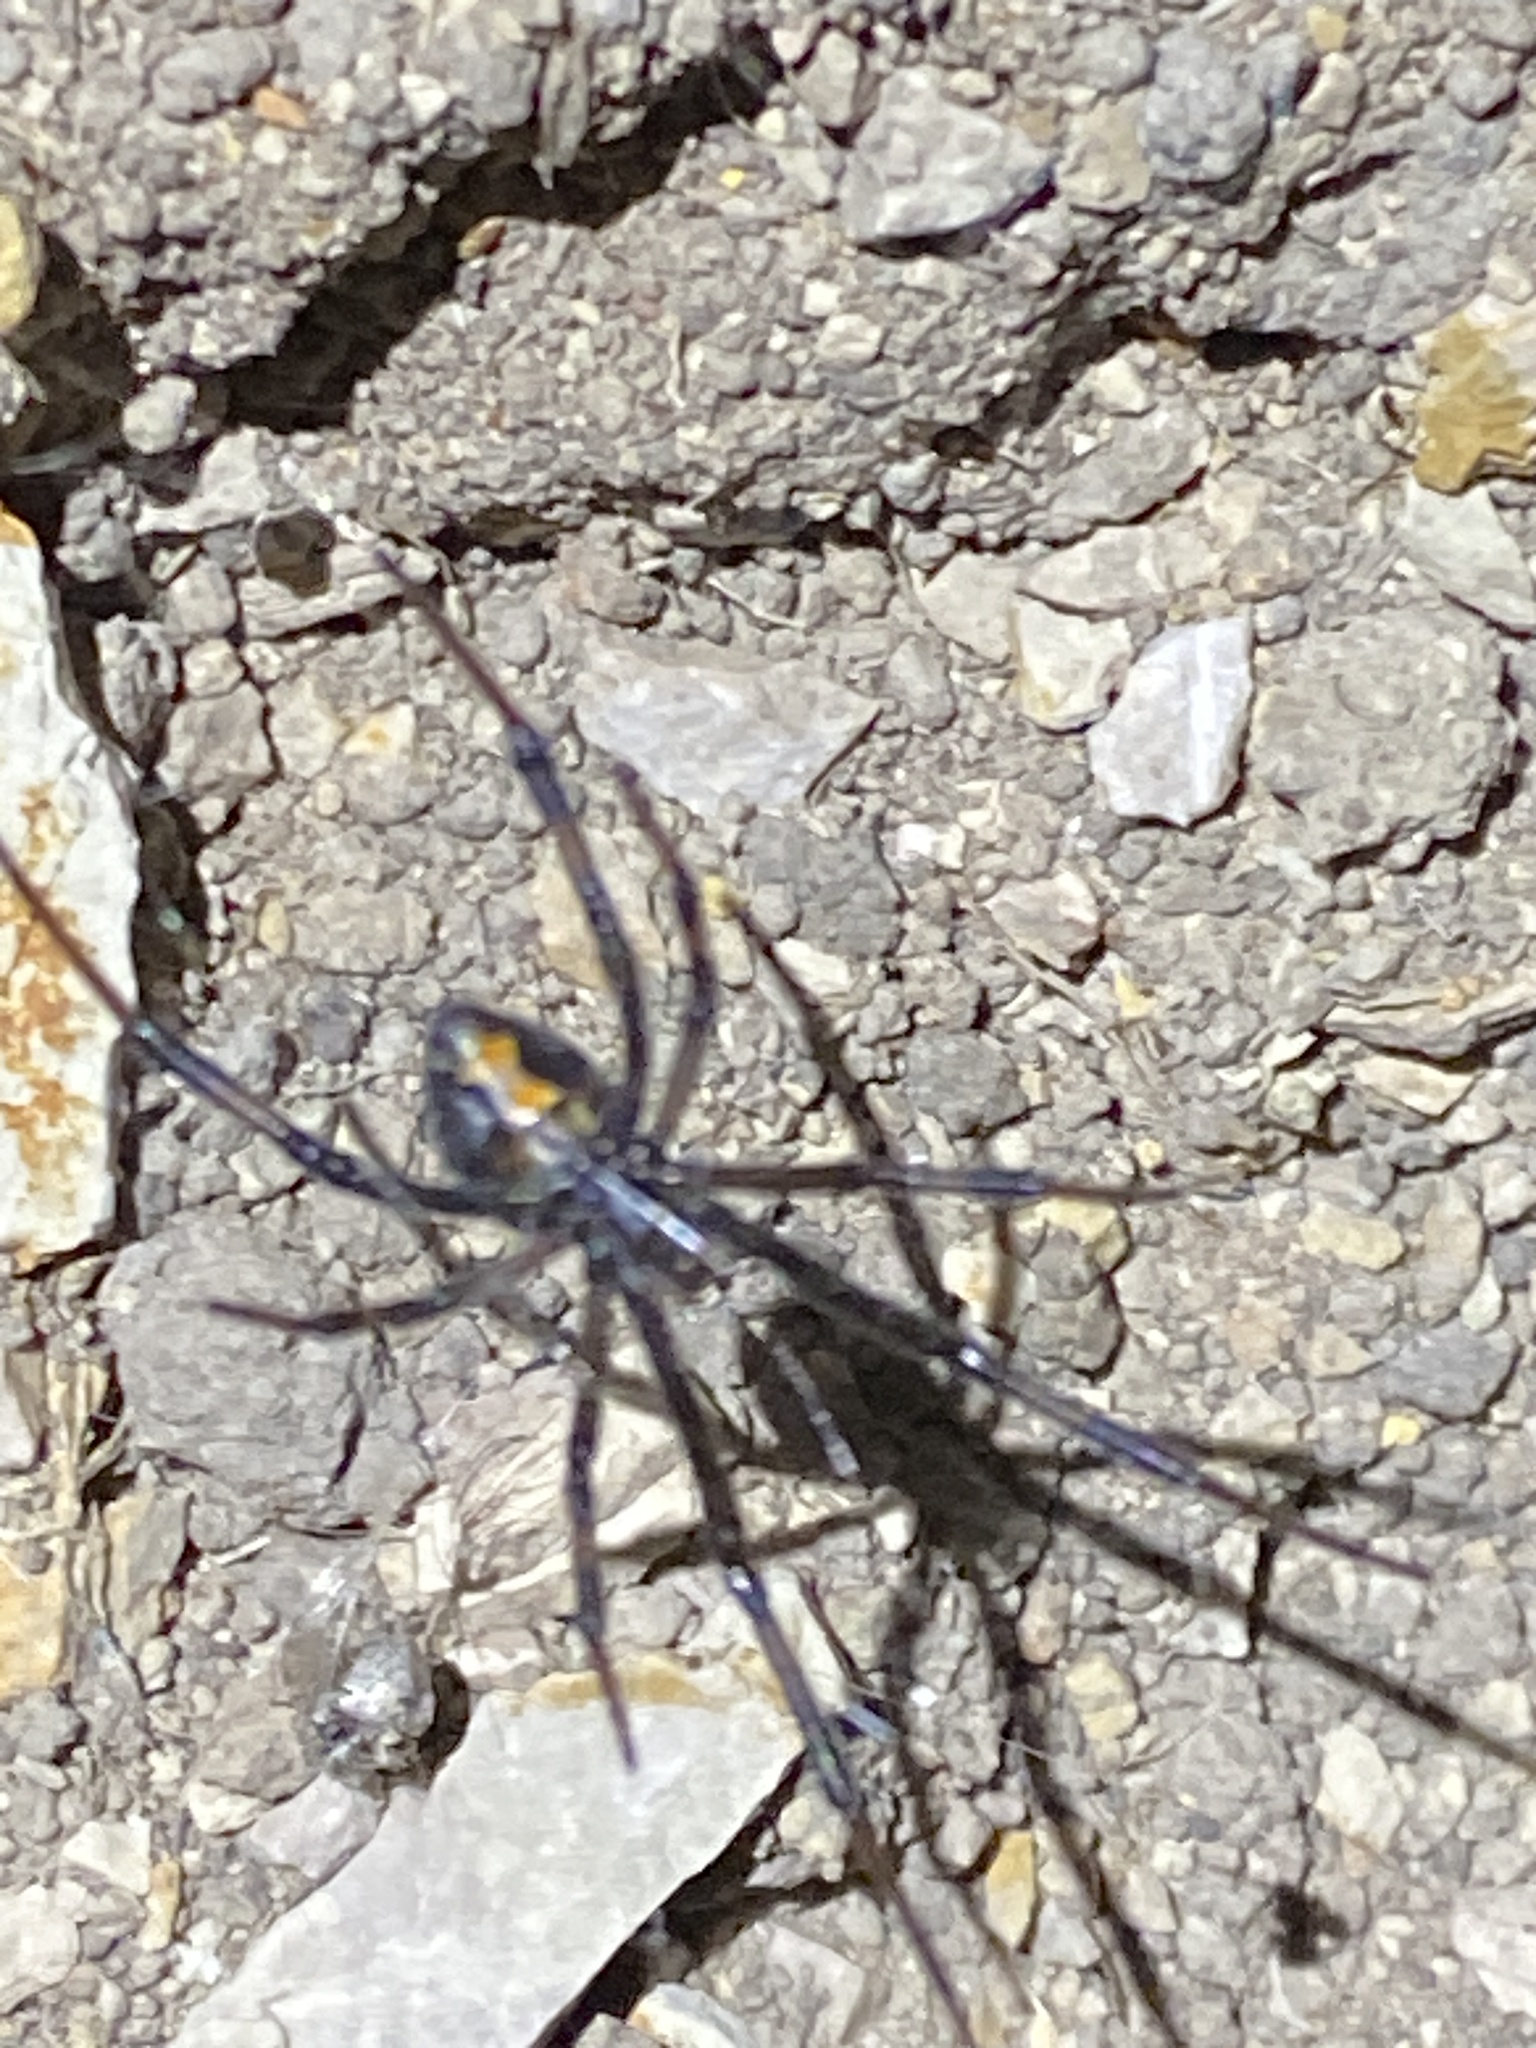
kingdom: Animalia
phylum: Arthropoda
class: Arachnida
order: Araneae
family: Theridiidae
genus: Latrodectus
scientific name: Latrodectus hesperus
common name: Western black widow
